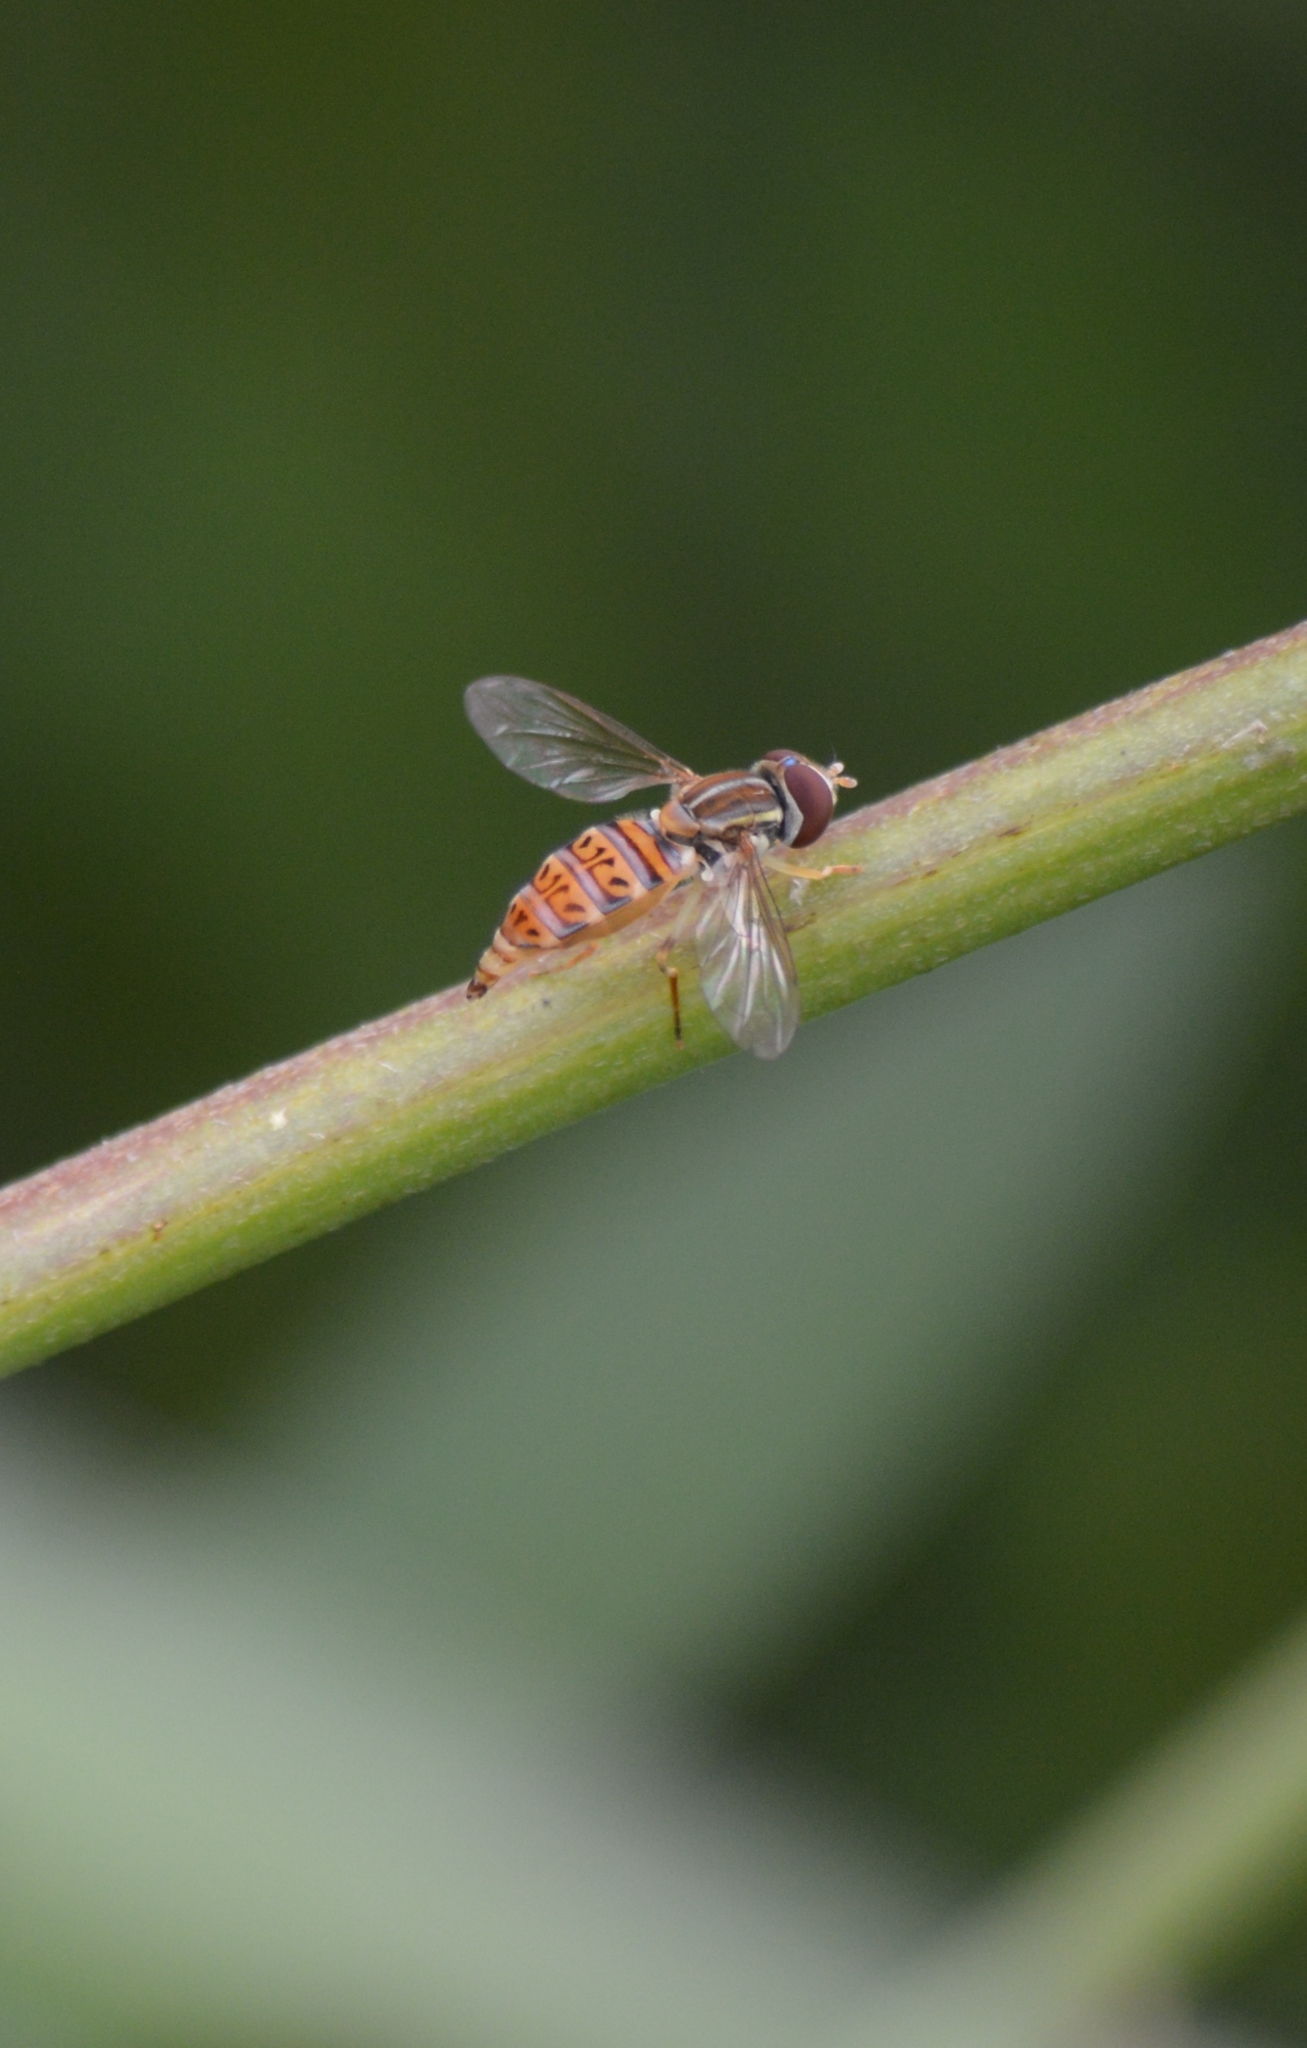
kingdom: Animalia
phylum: Arthropoda
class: Insecta
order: Diptera
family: Syrphidae
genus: Toxomerus
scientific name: Toxomerus pulchellus
